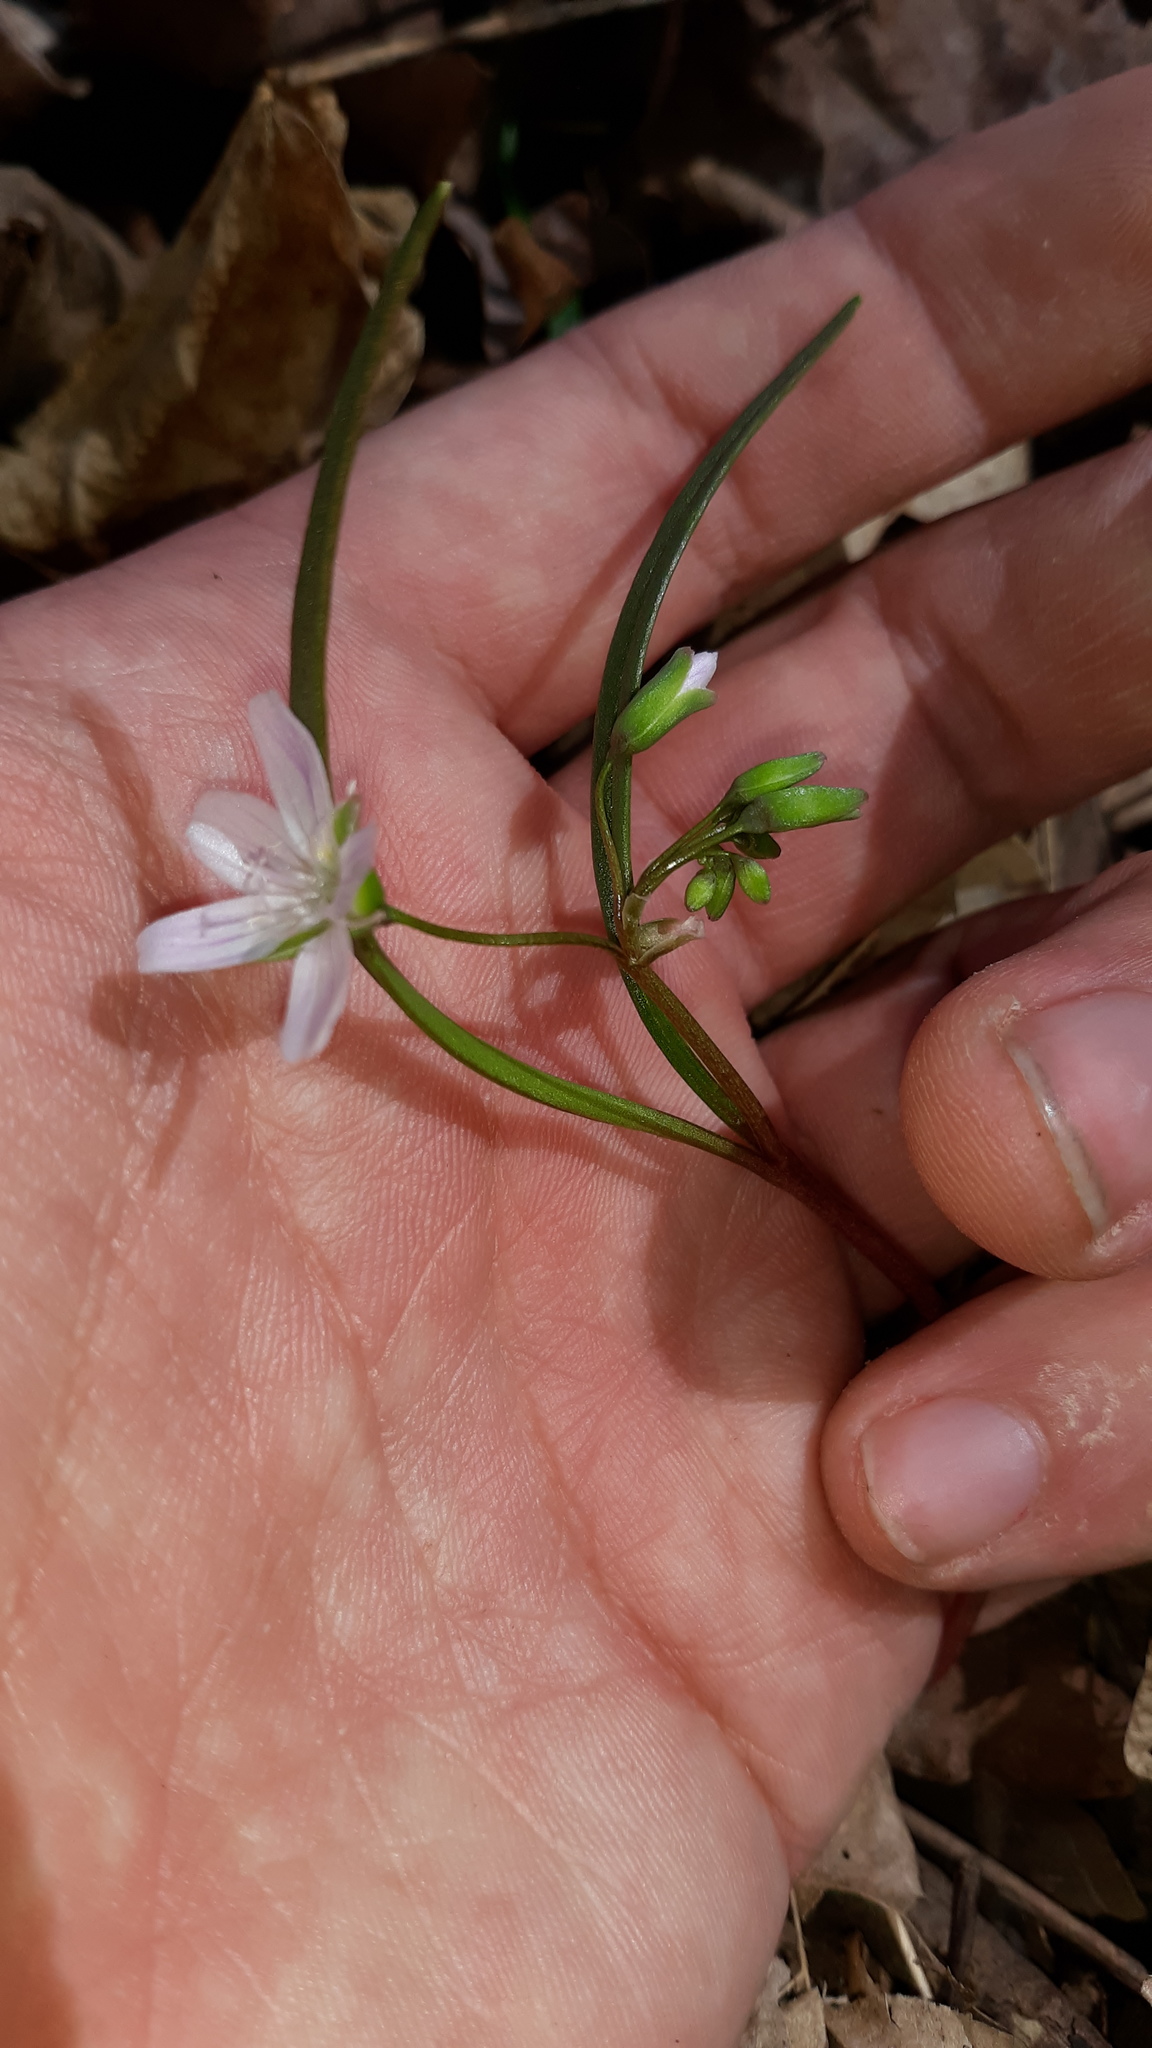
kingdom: Plantae
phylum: Tracheophyta
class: Magnoliopsida
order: Caryophyllales
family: Montiaceae
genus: Claytonia
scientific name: Claytonia virginica
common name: Virginia springbeauty
